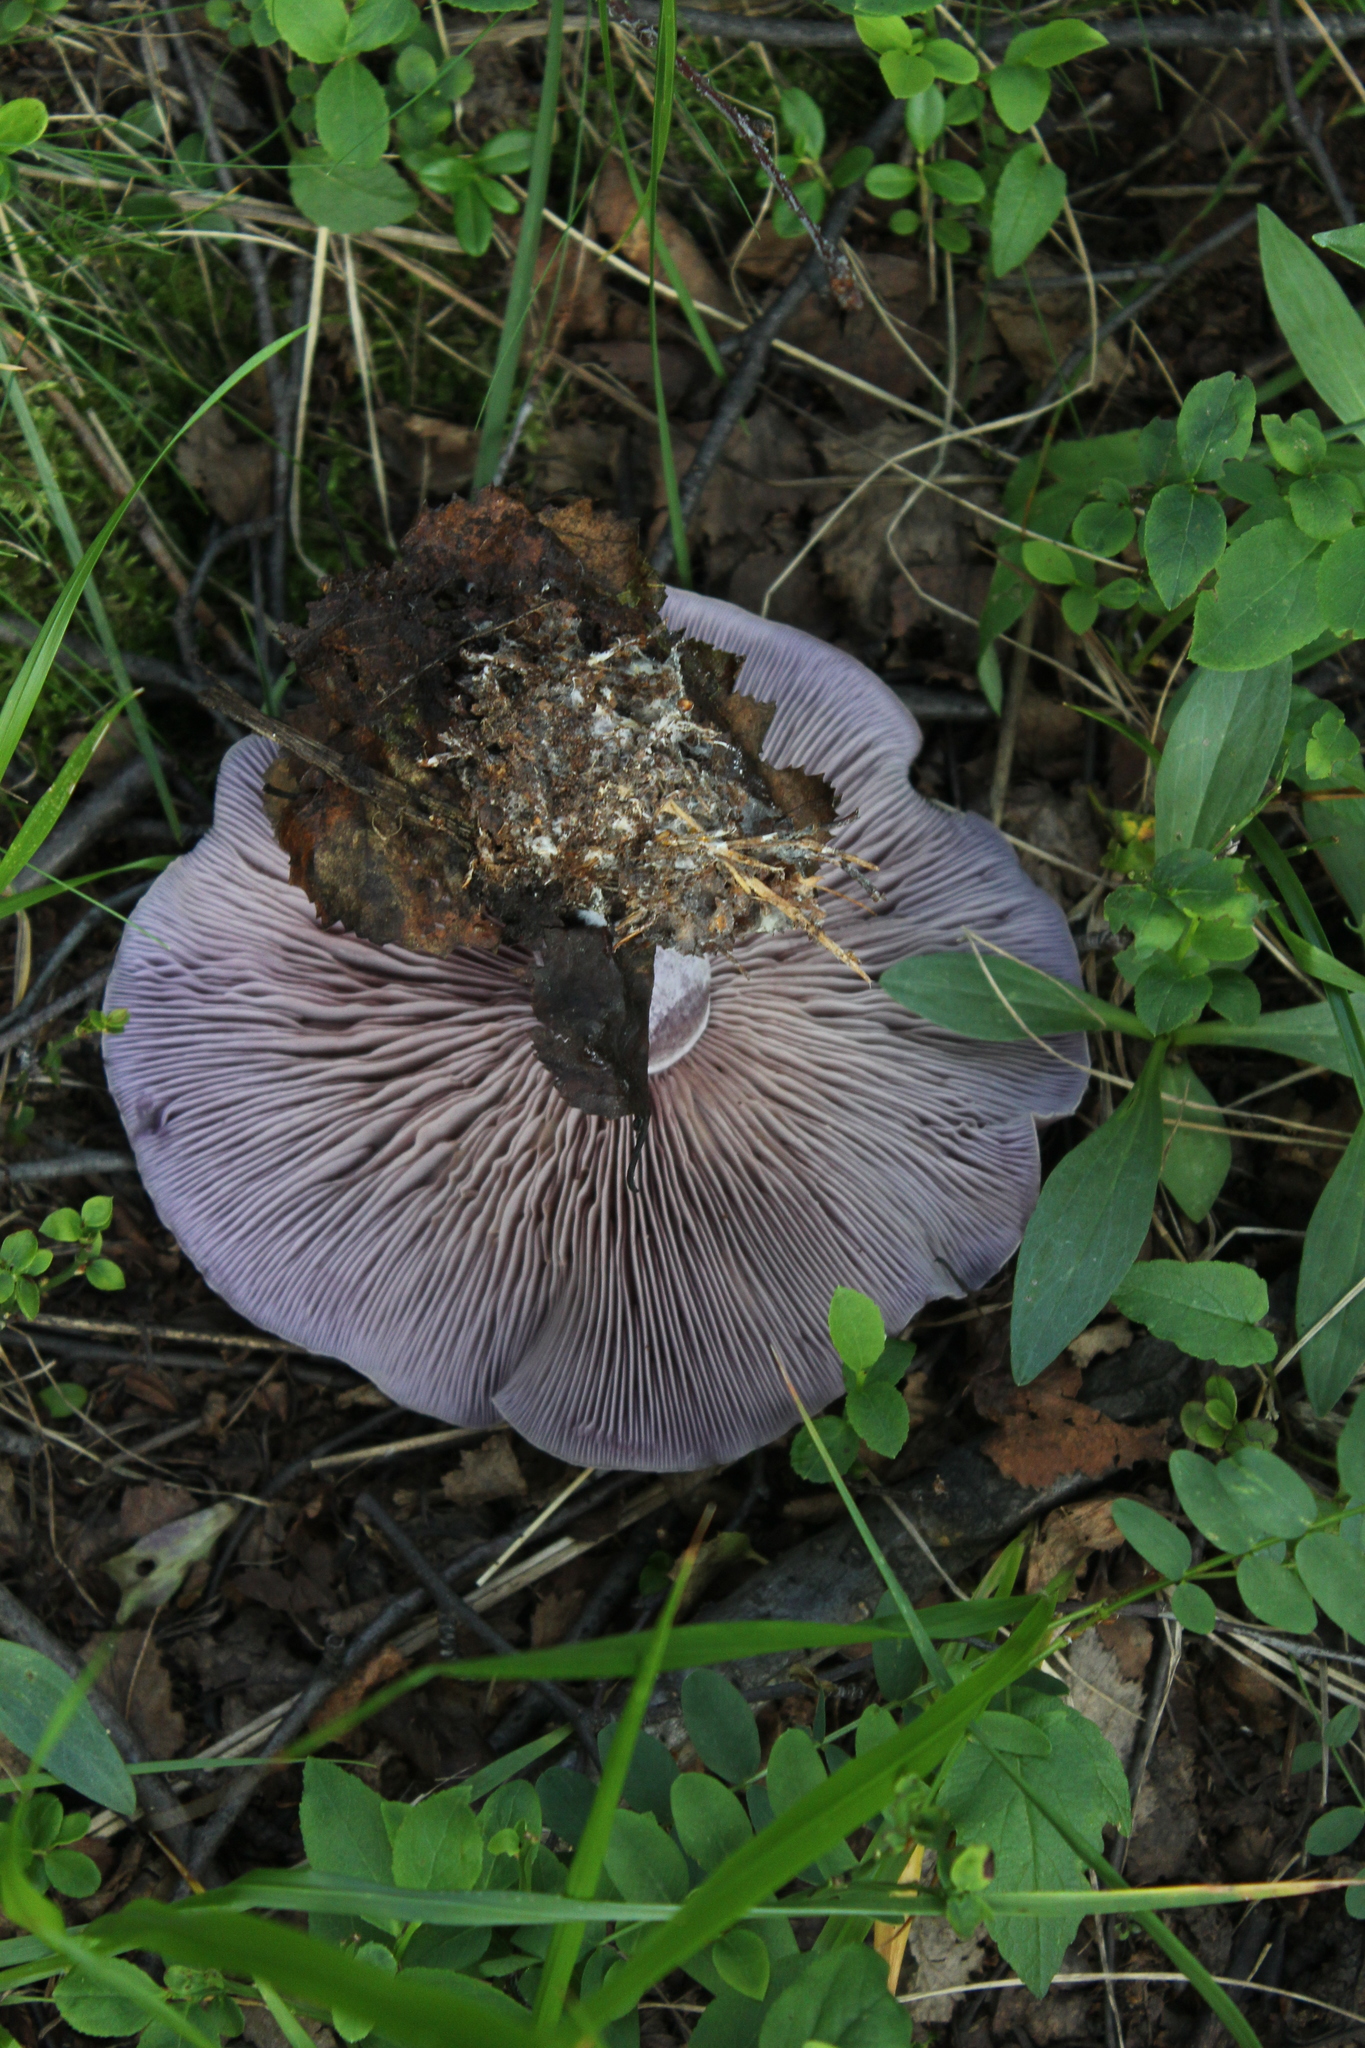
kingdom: Fungi
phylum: Basidiomycota
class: Agaricomycetes
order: Agaricales
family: Tricholomataceae
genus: Collybia
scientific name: Collybia
